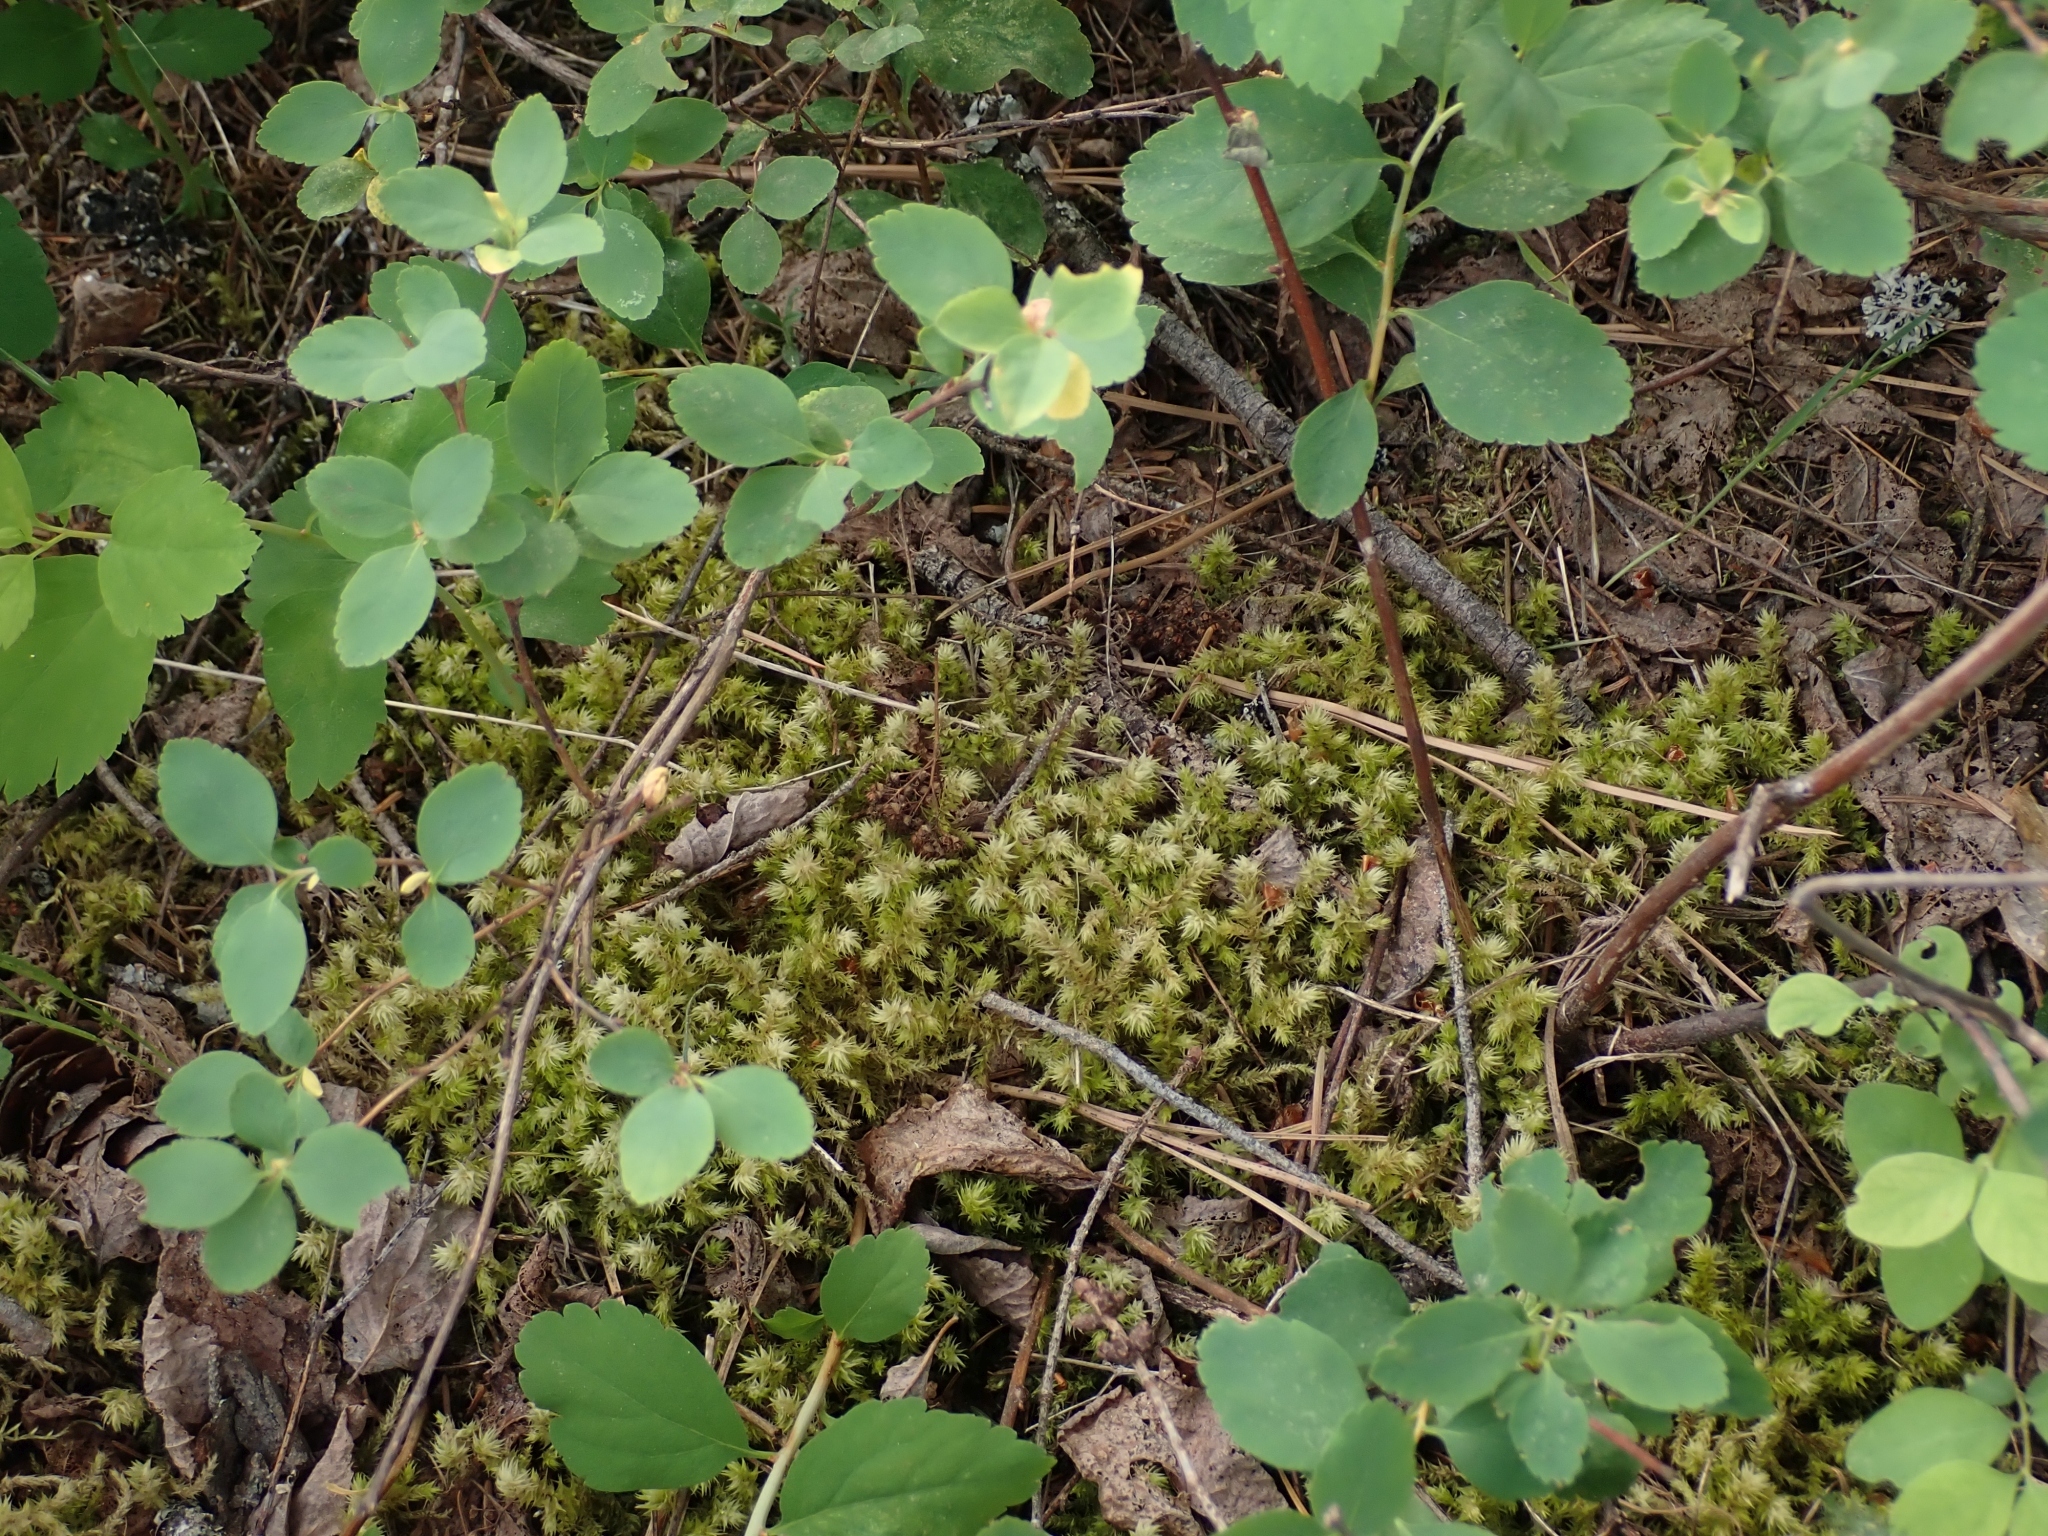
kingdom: Plantae
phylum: Bryophyta
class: Bryopsida
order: Hypnales
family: Hylocomiaceae
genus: Hylocomiadelphus
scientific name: Hylocomiadelphus triquetrus
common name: Rough goose neck moss
